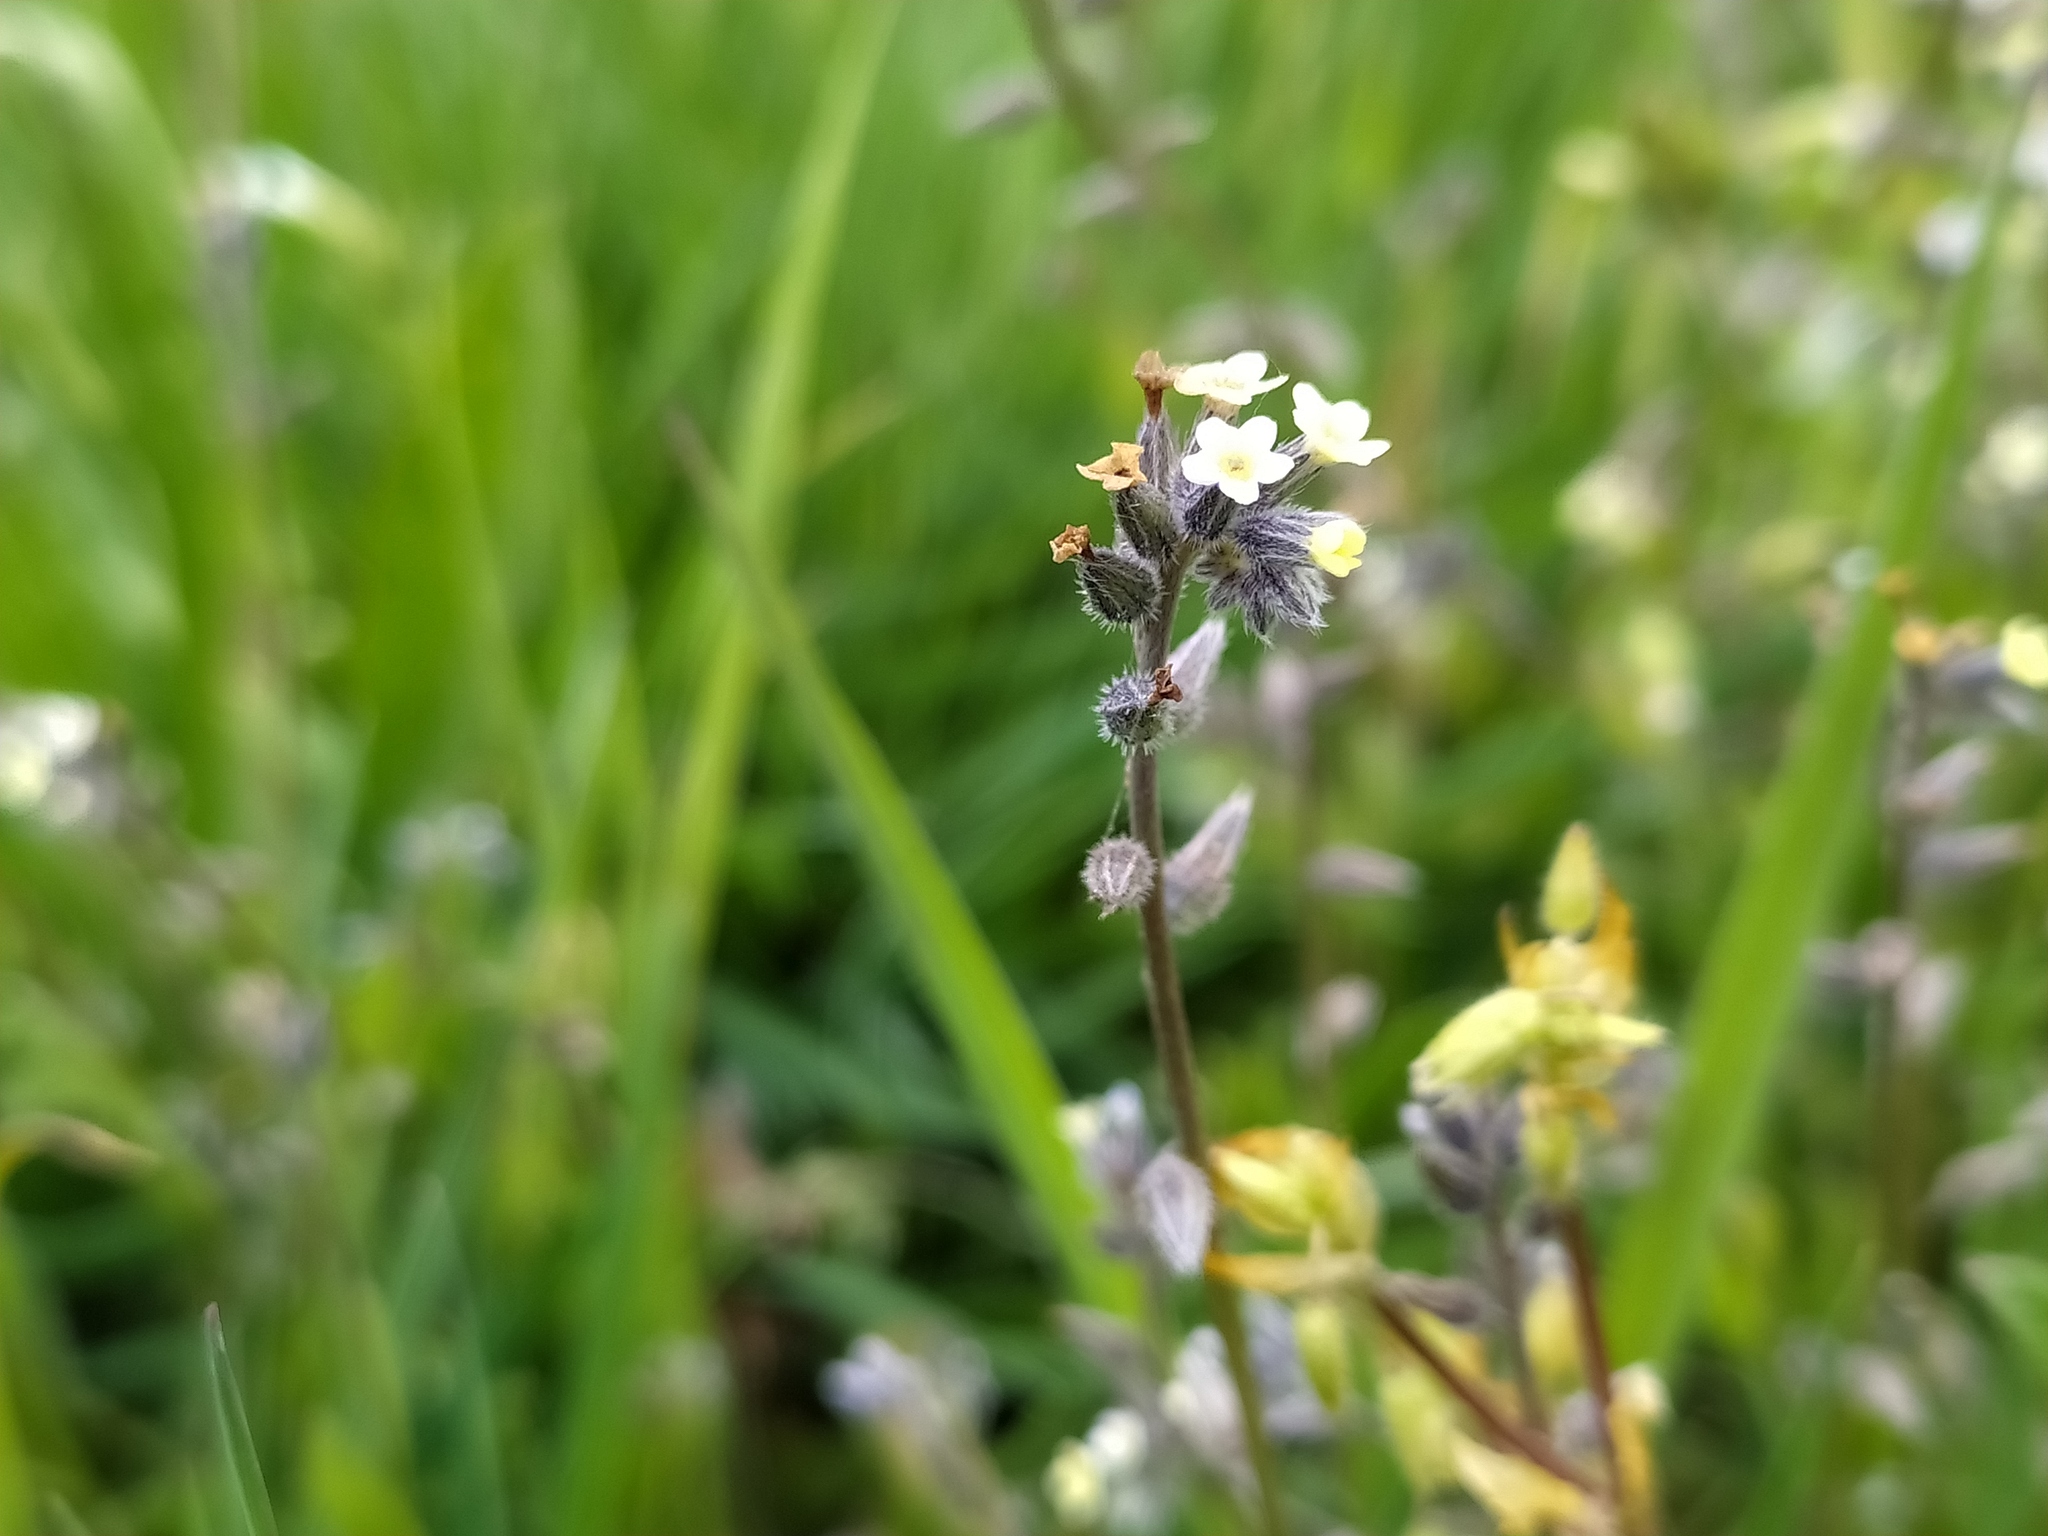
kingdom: Plantae
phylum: Tracheophyta
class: Magnoliopsida
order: Boraginales
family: Boraginaceae
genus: Myosotis
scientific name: Myosotis discolor
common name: Changing forget-me-not
